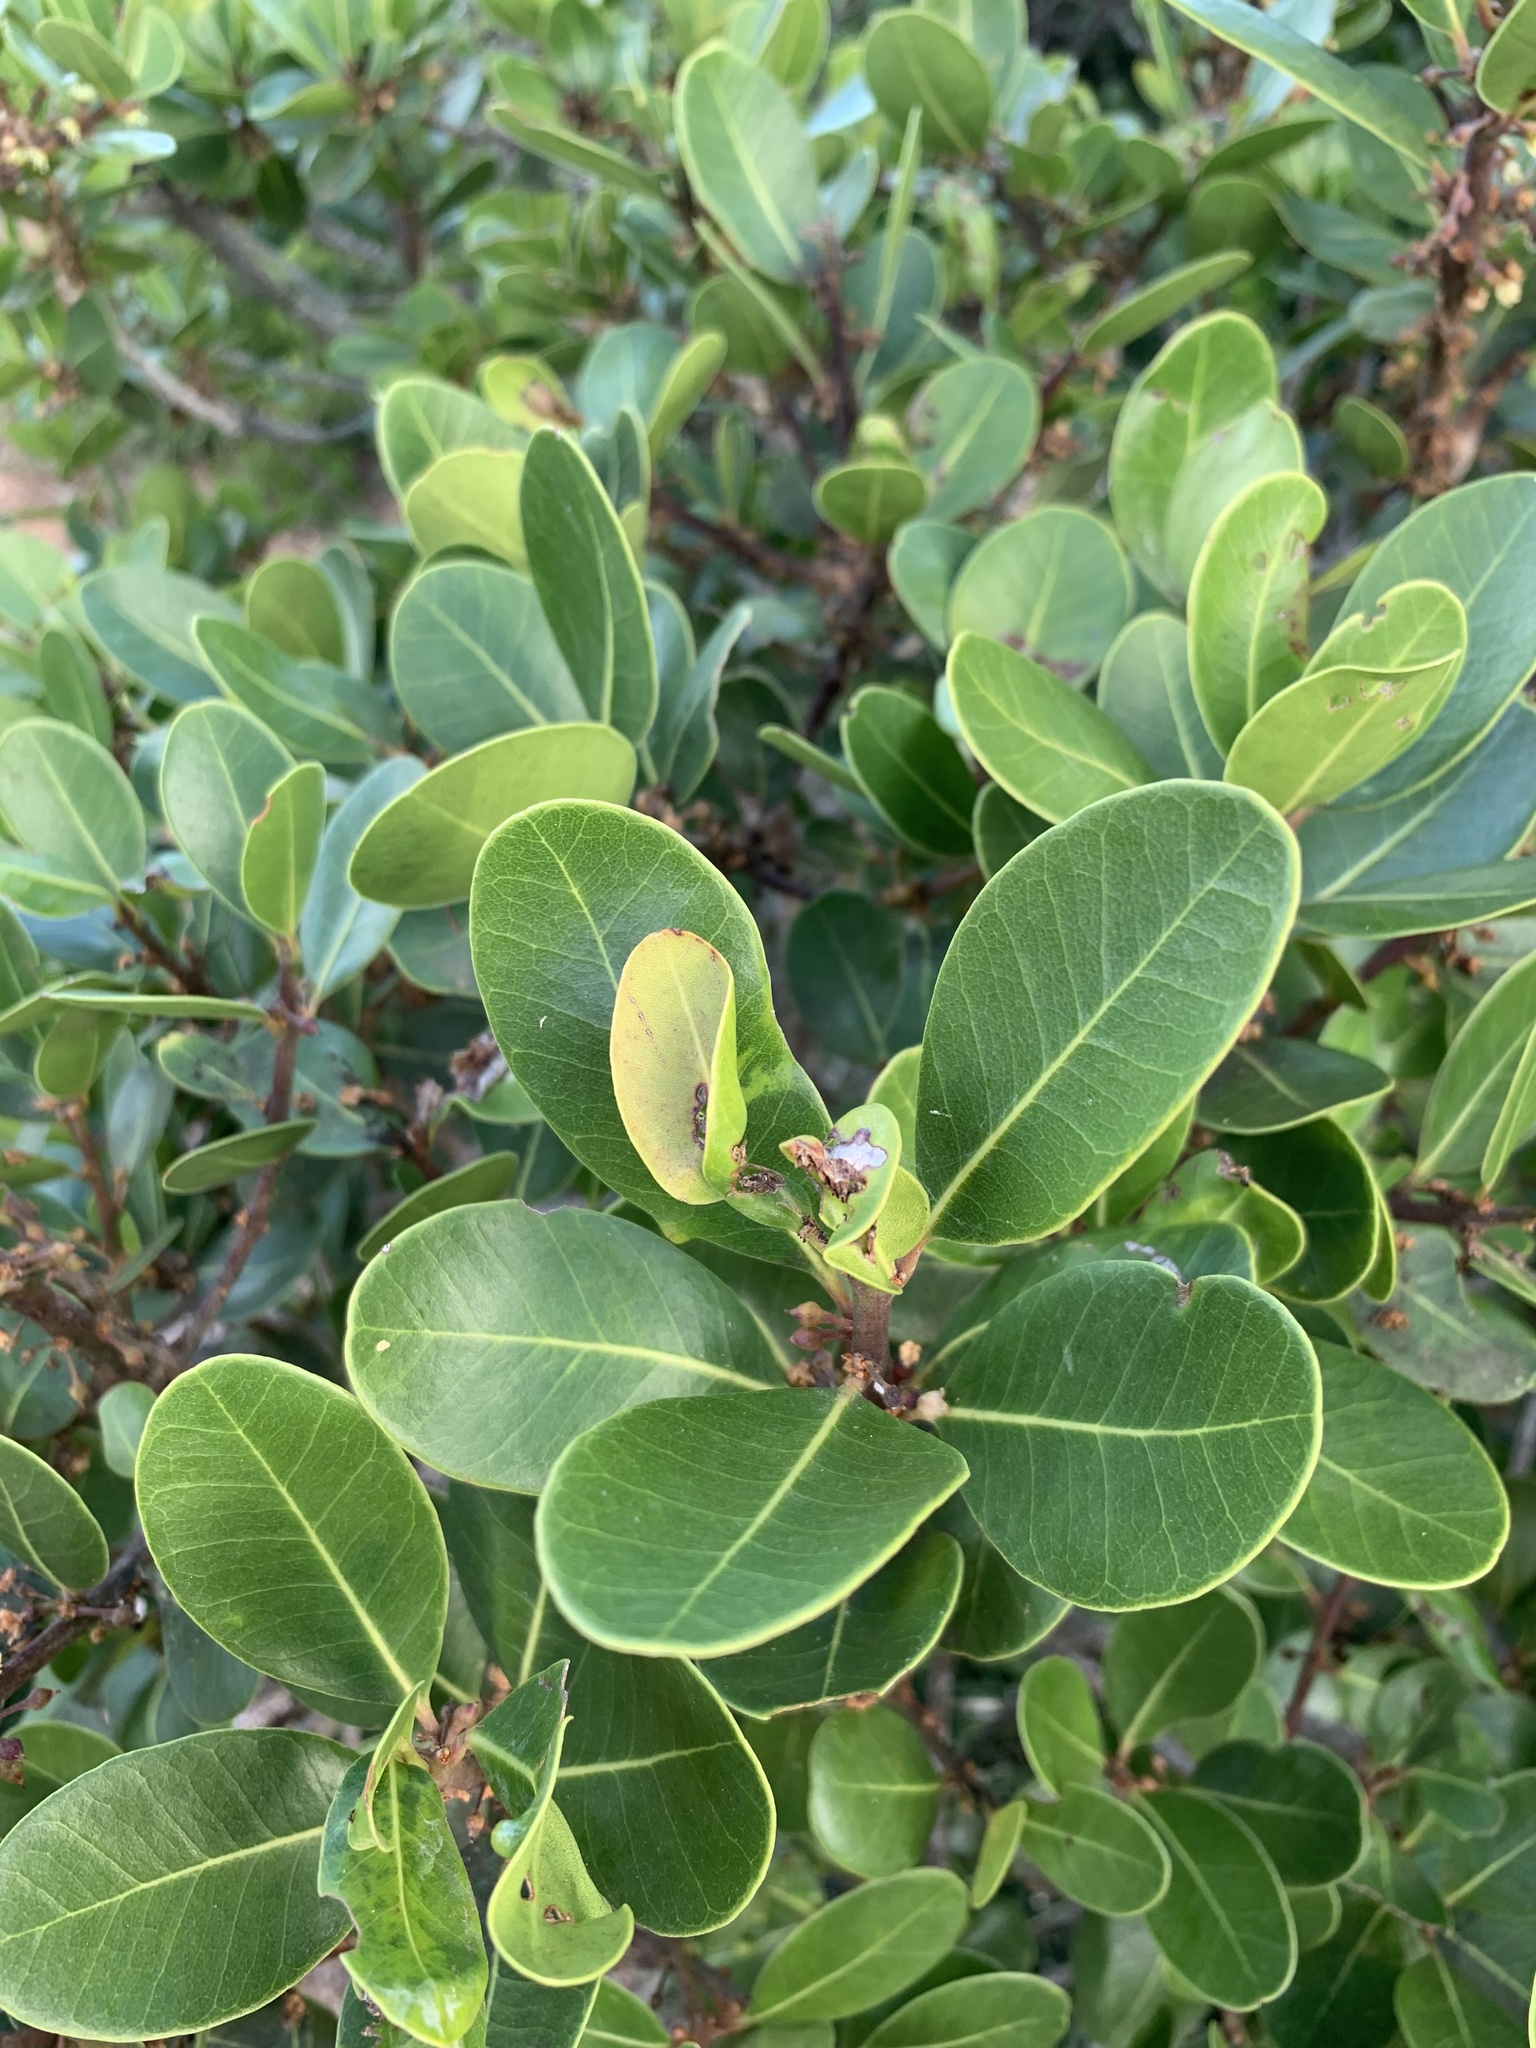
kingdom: Plantae
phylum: Tracheophyta
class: Magnoliopsida
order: Ericales
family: Sapotaceae
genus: Sideroxylon
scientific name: Sideroxylon inerme
